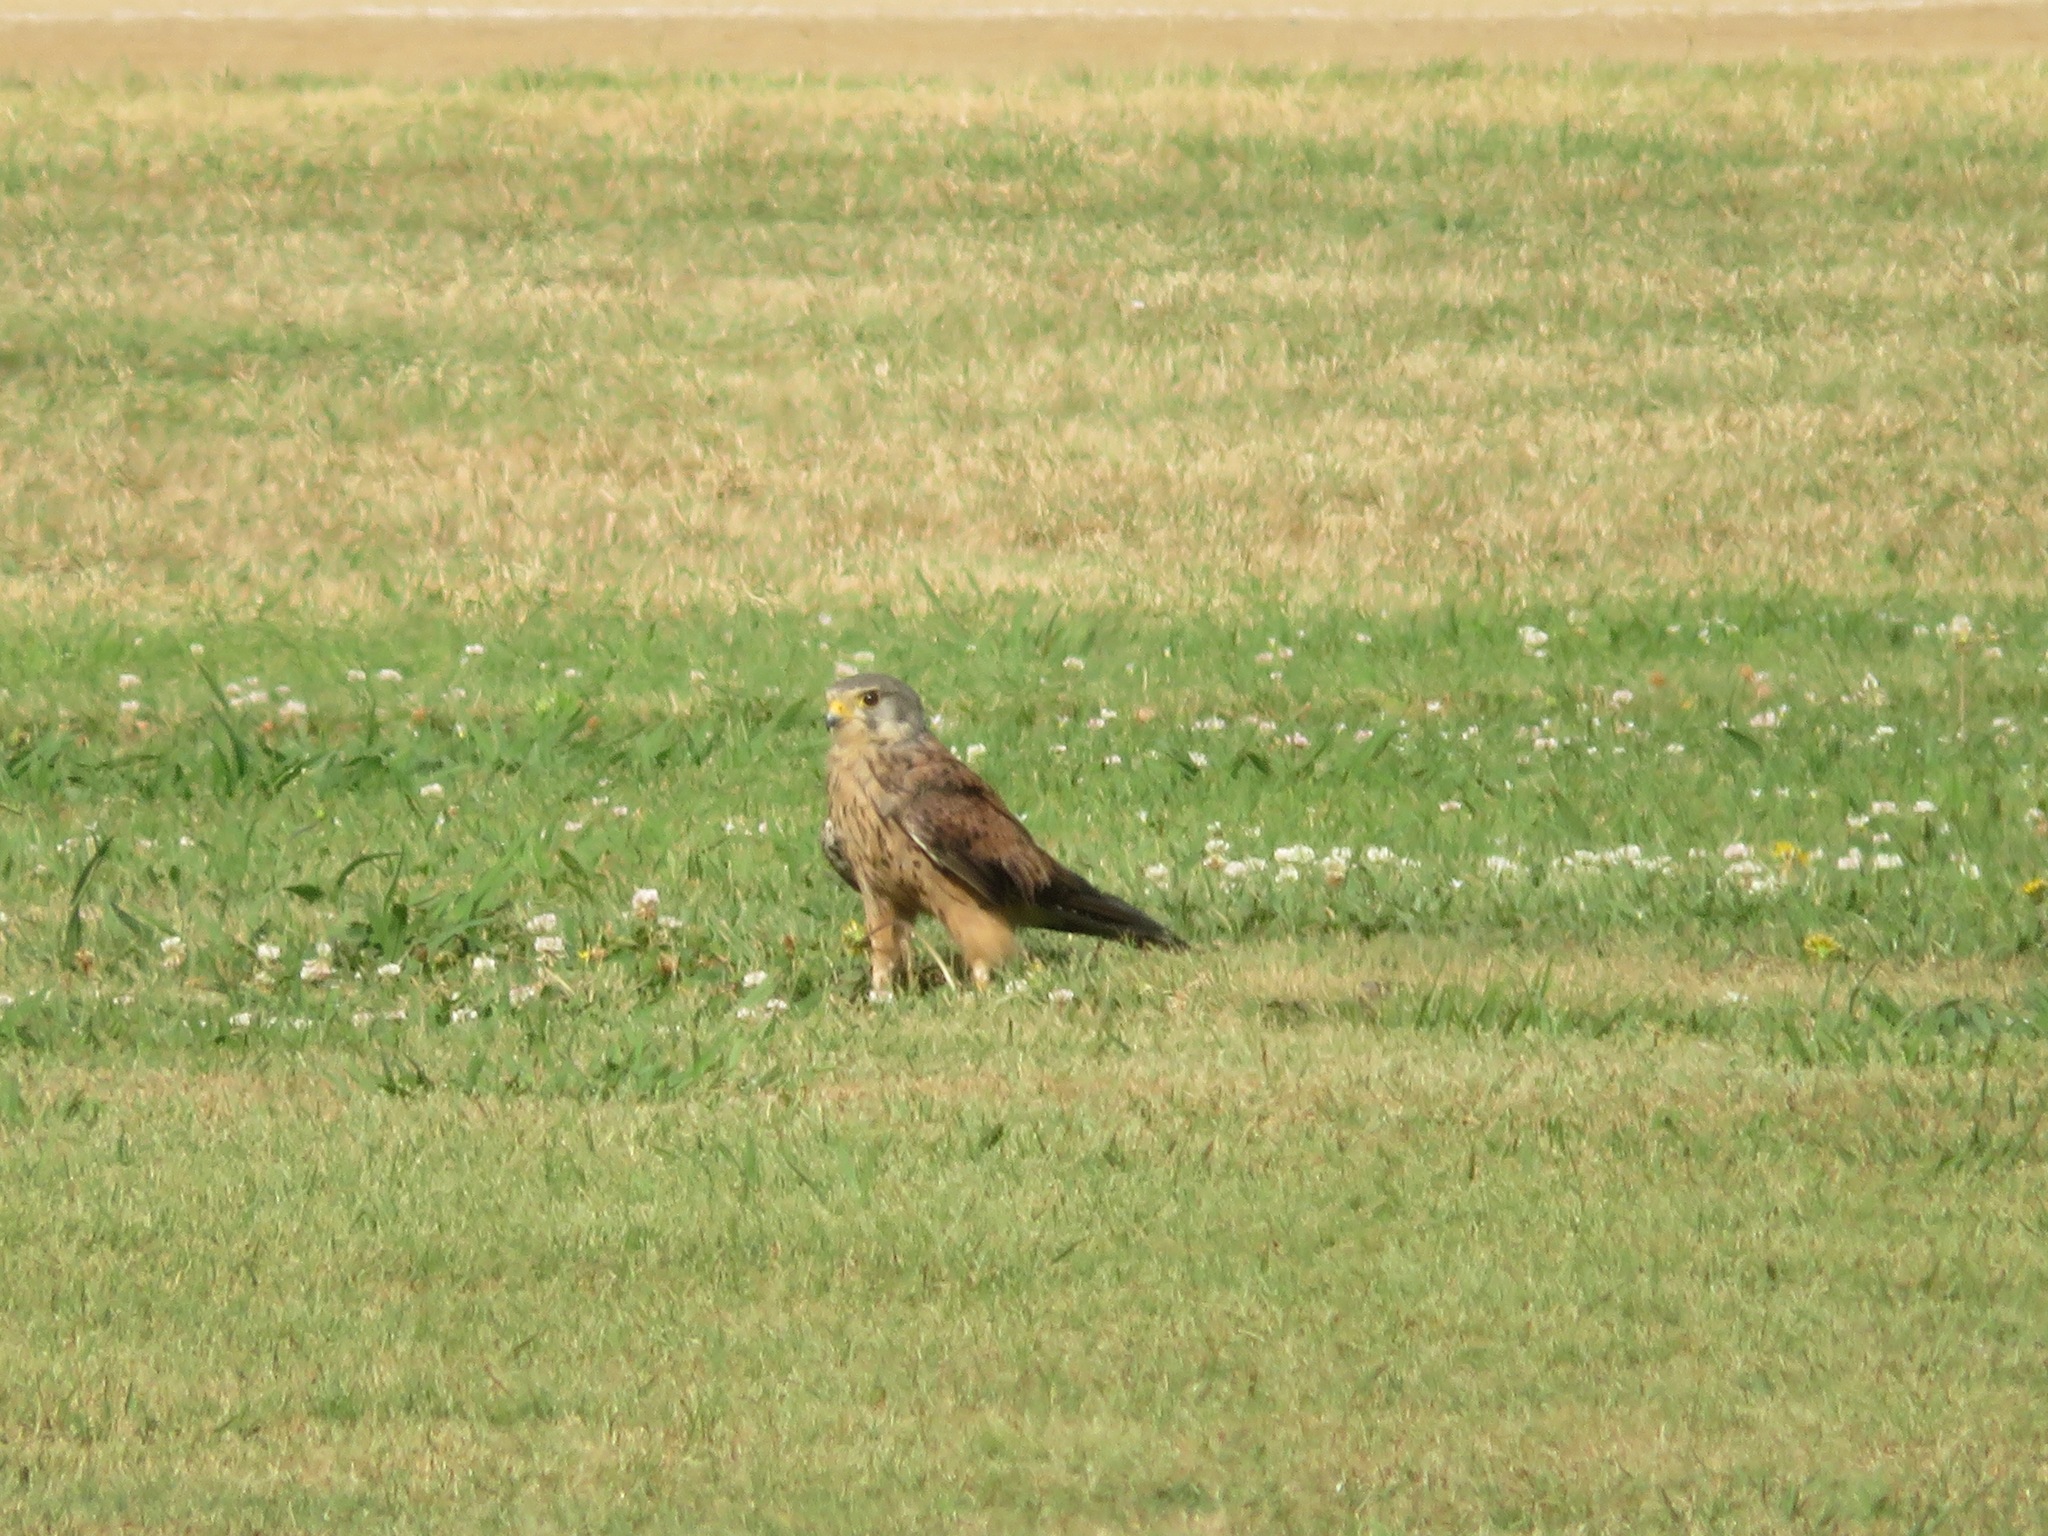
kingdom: Animalia
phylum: Chordata
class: Aves
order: Falconiformes
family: Falconidae
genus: Falco
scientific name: Falco tinnunculus
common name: Common kestrel
